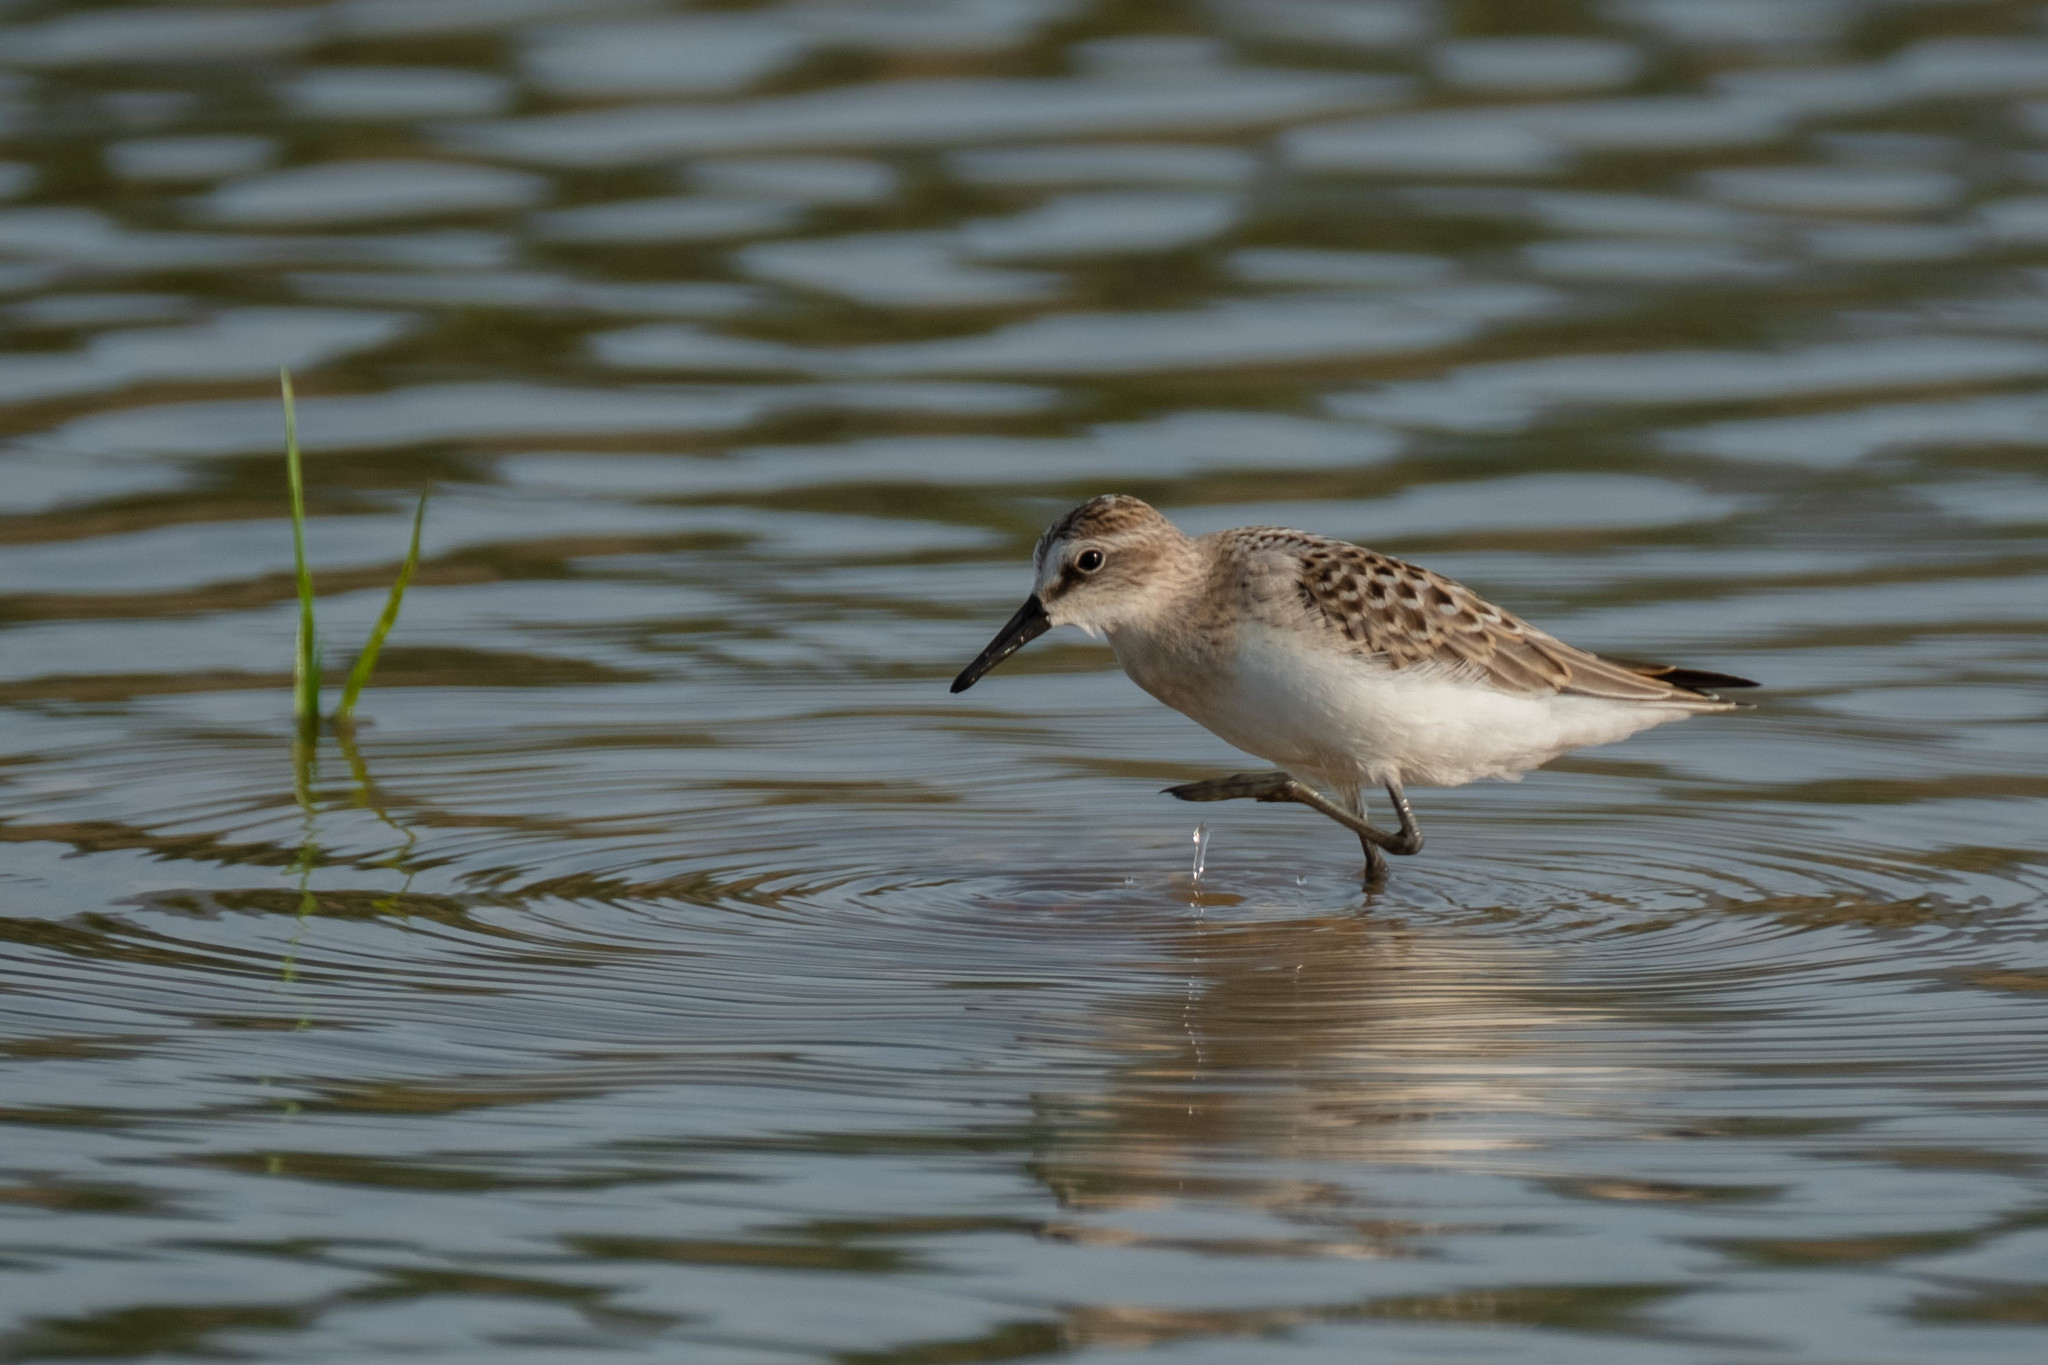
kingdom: Animalia
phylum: Chordata
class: Aves
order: Charadriiformes
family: Scolopacidae
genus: Calidris
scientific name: Calidris pusilla
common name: Semipalmated sandpiper
